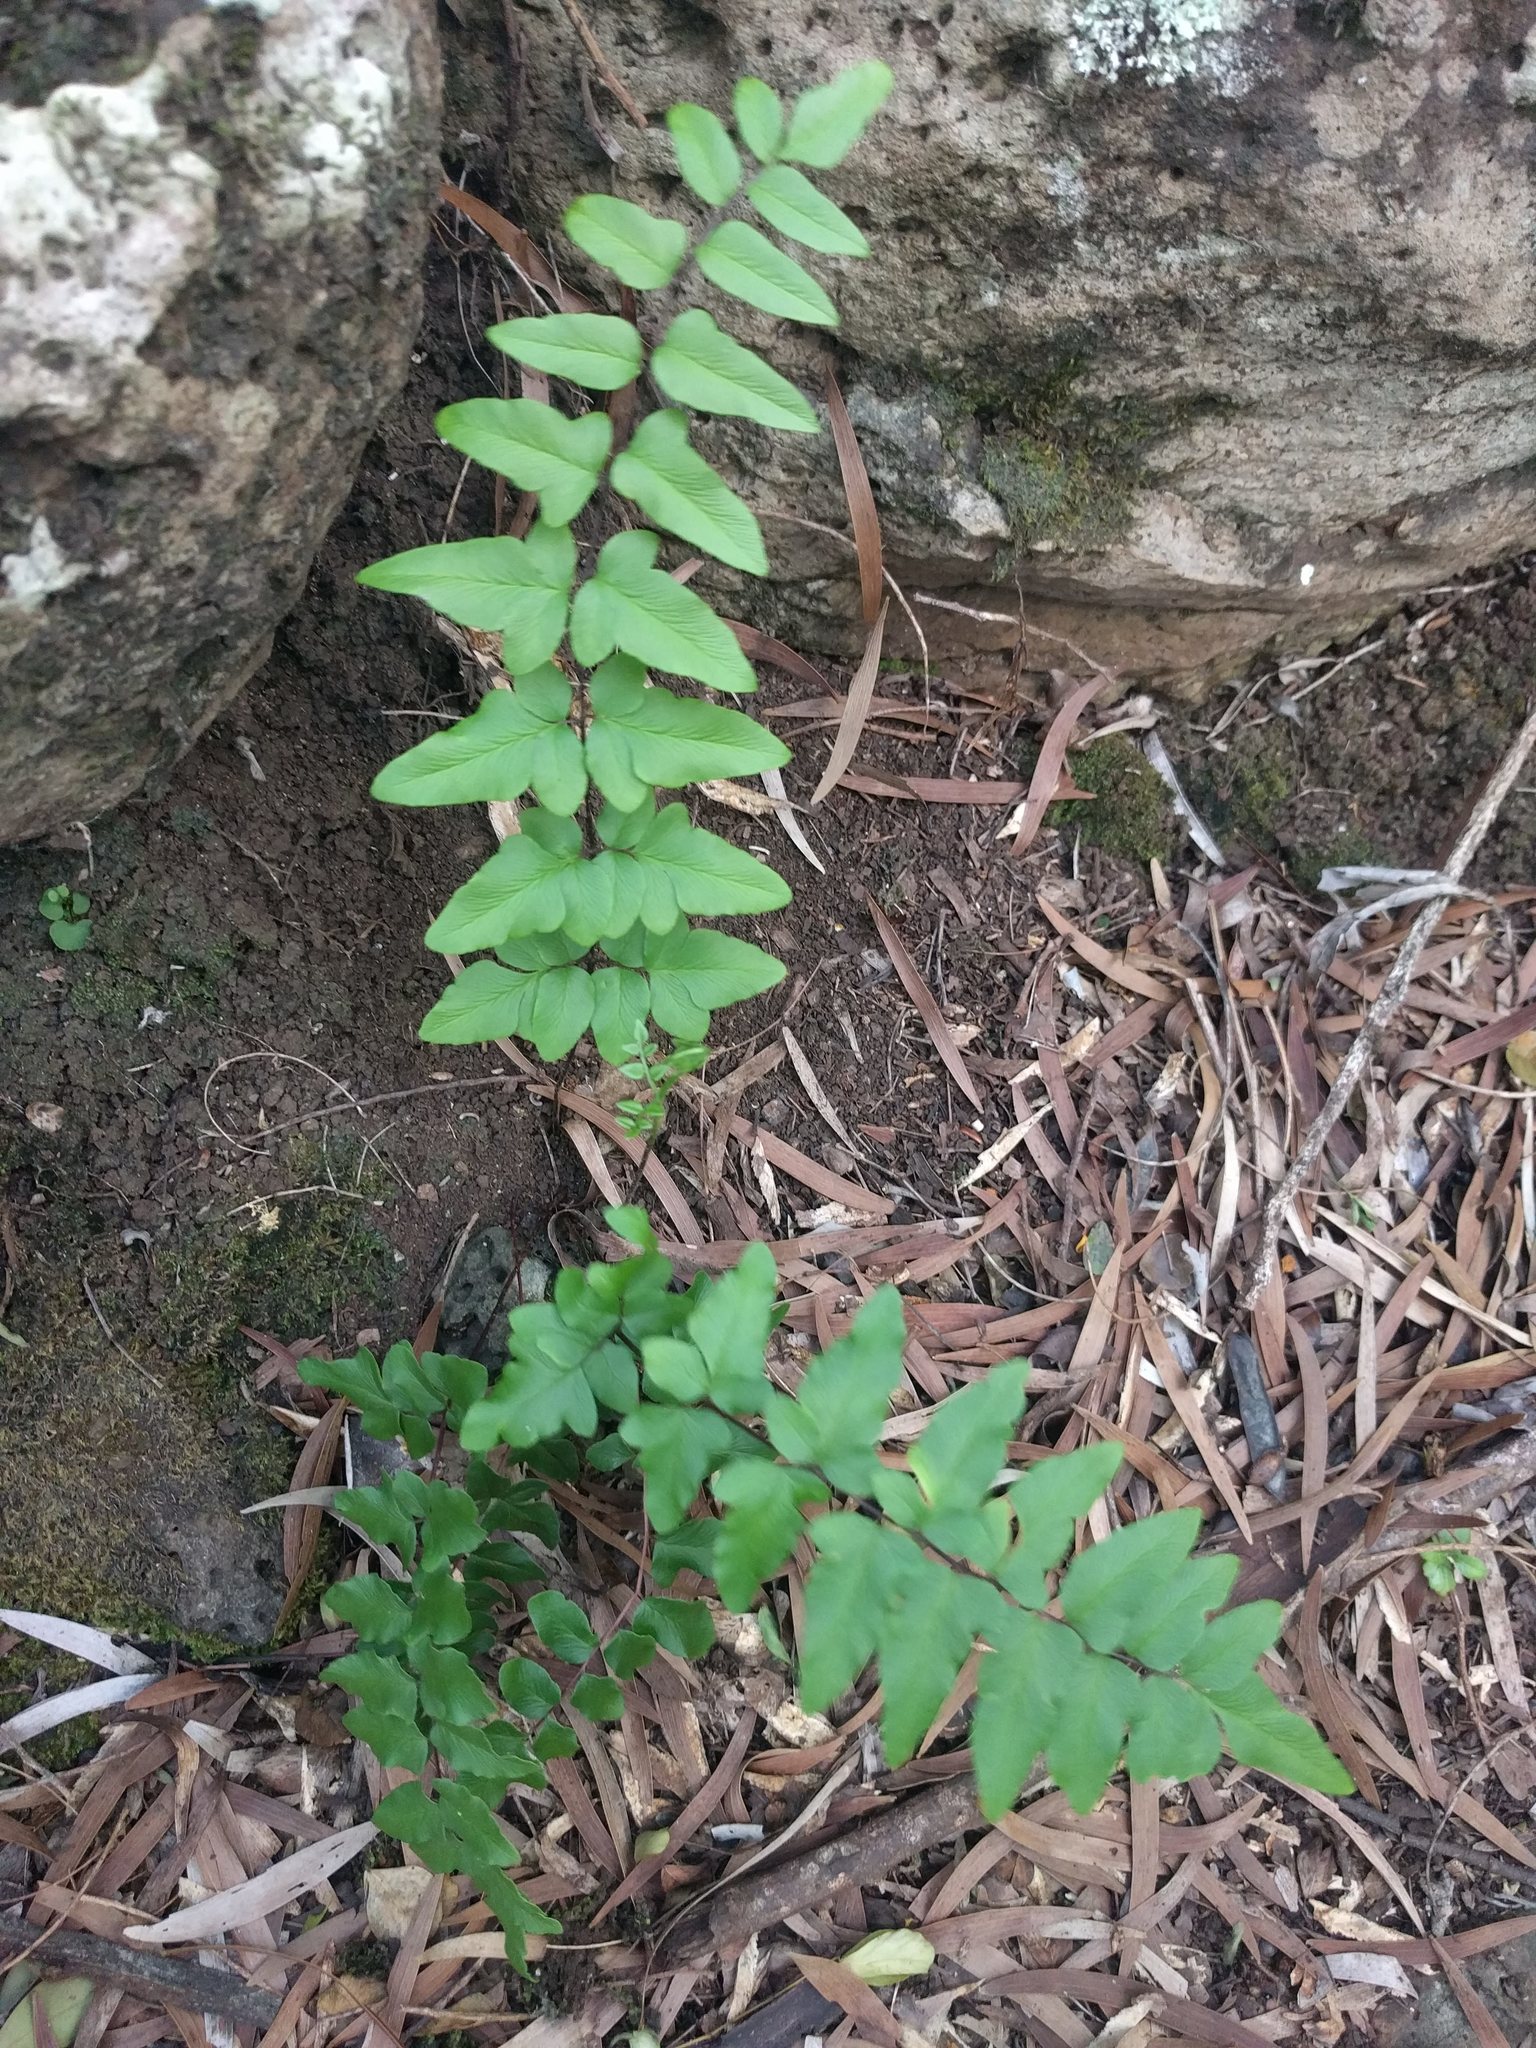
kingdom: Plantae
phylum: Tracheophyta
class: Polypodiopsida
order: Polypodiales
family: Pteridaceae
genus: Cheilanthes
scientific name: Cheilanthes viridis
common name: Green cliffbrake
